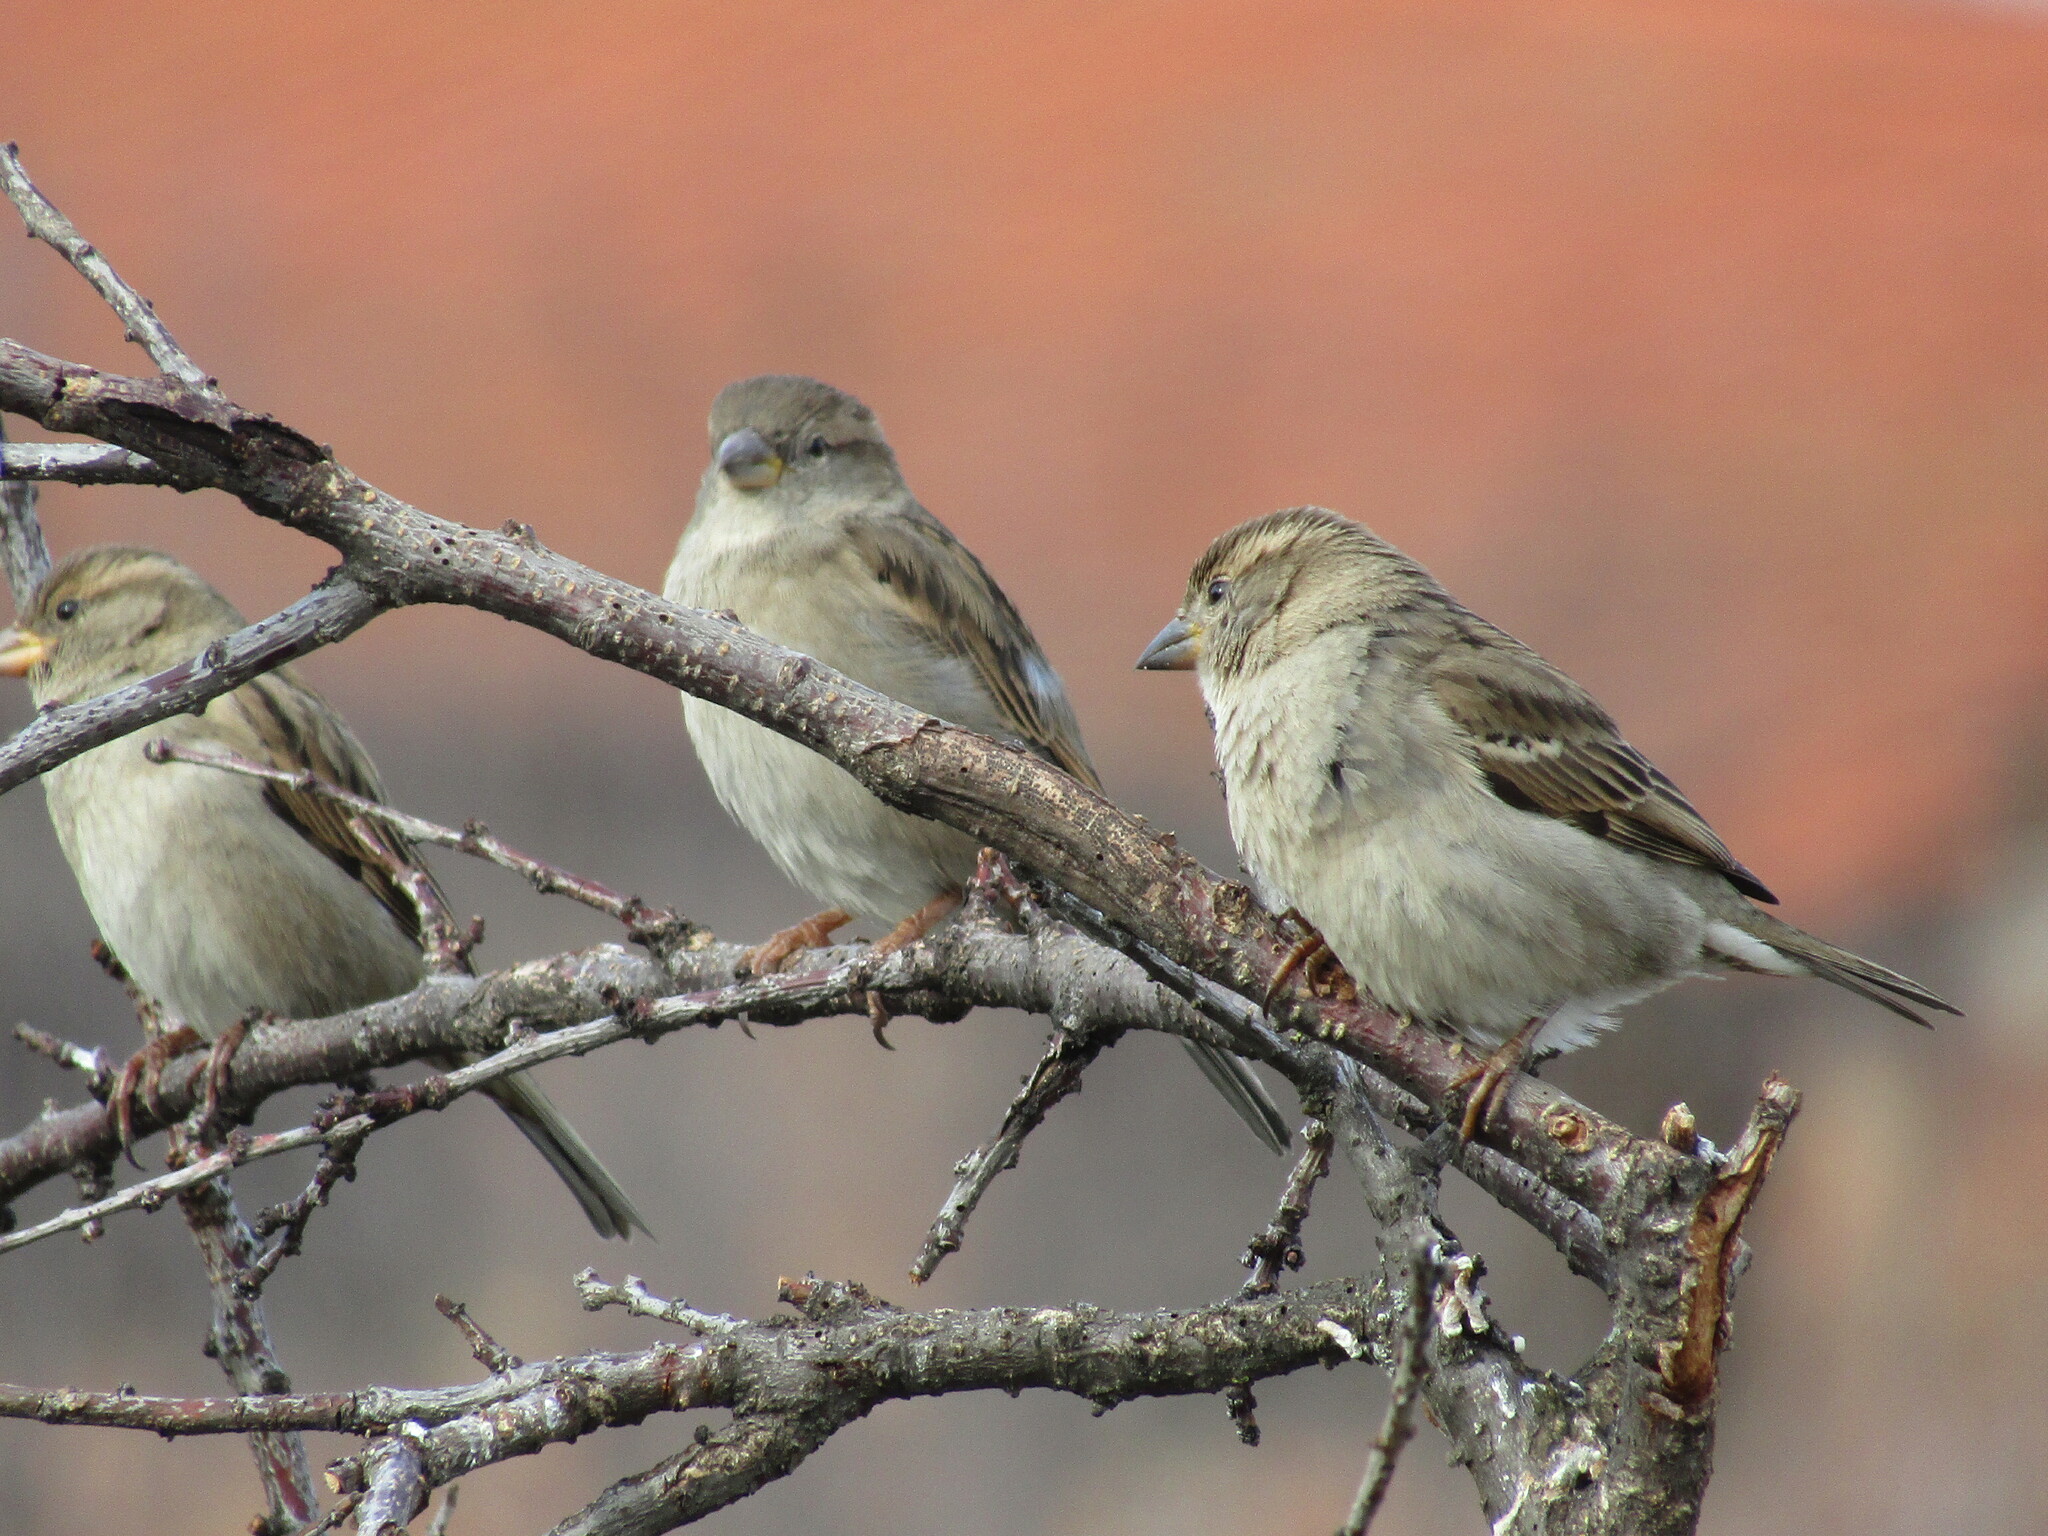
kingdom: Animalia
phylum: Chordata
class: Aves
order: Passeriformes
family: Passeridae
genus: Passer
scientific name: Passer domesticus
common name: House sparrow
